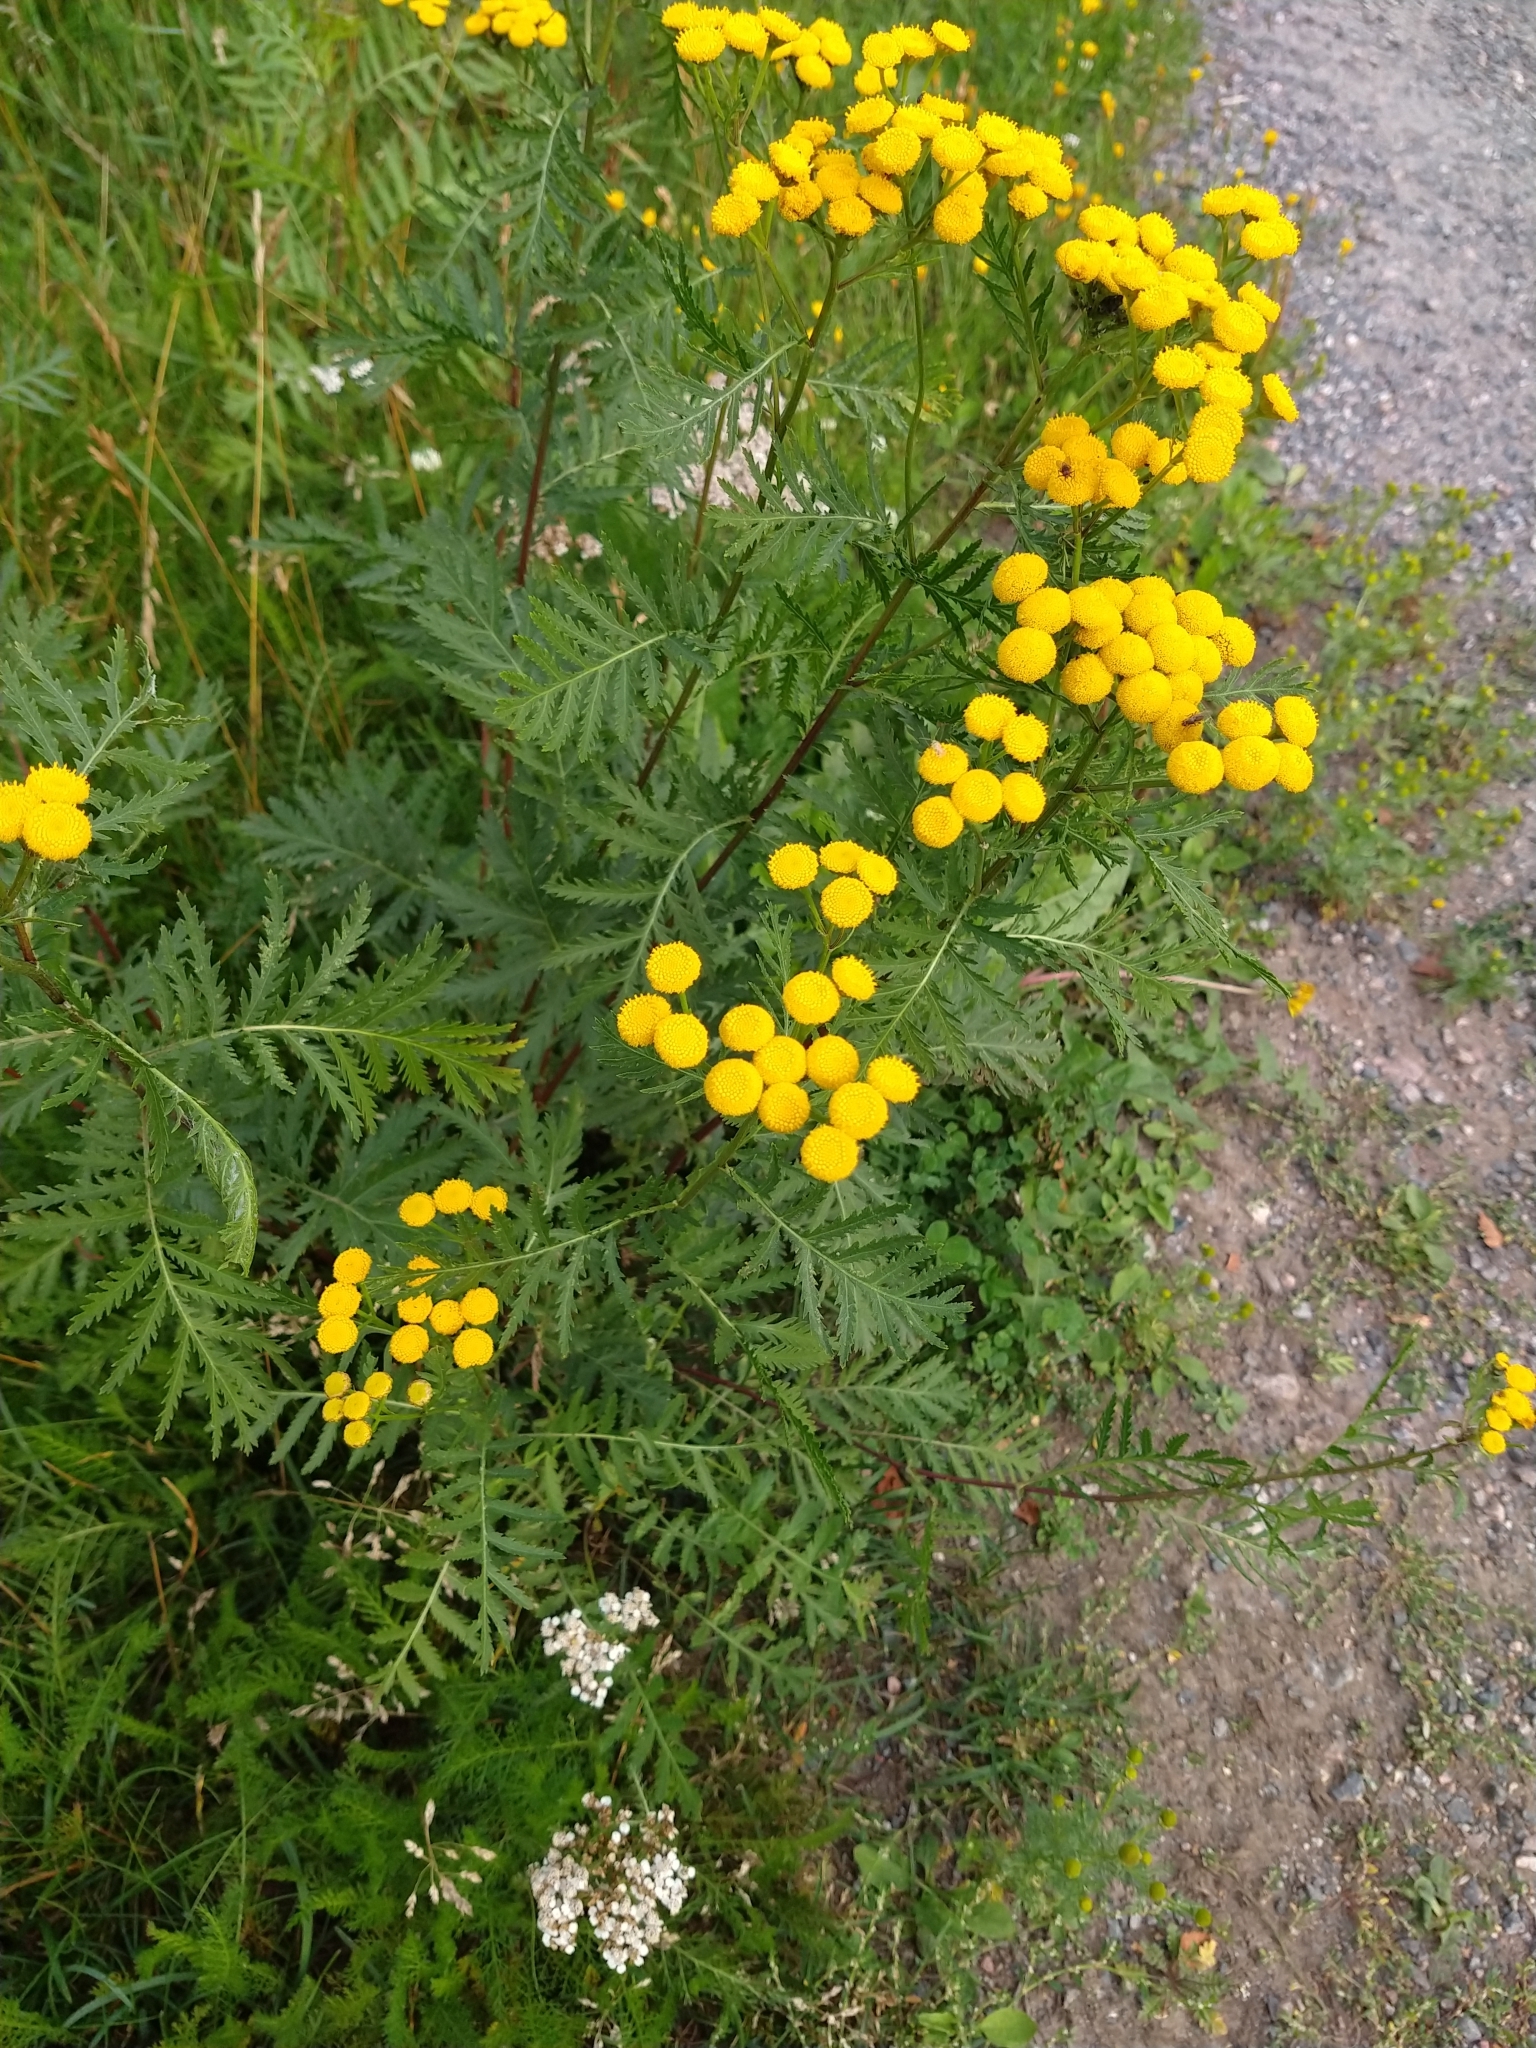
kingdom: Plantae
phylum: Tracheophyta
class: Magnoliopsida
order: Asterales
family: Asteraceae
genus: Tanacetum
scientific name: Tanacetum vulgare
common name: Common tansy
